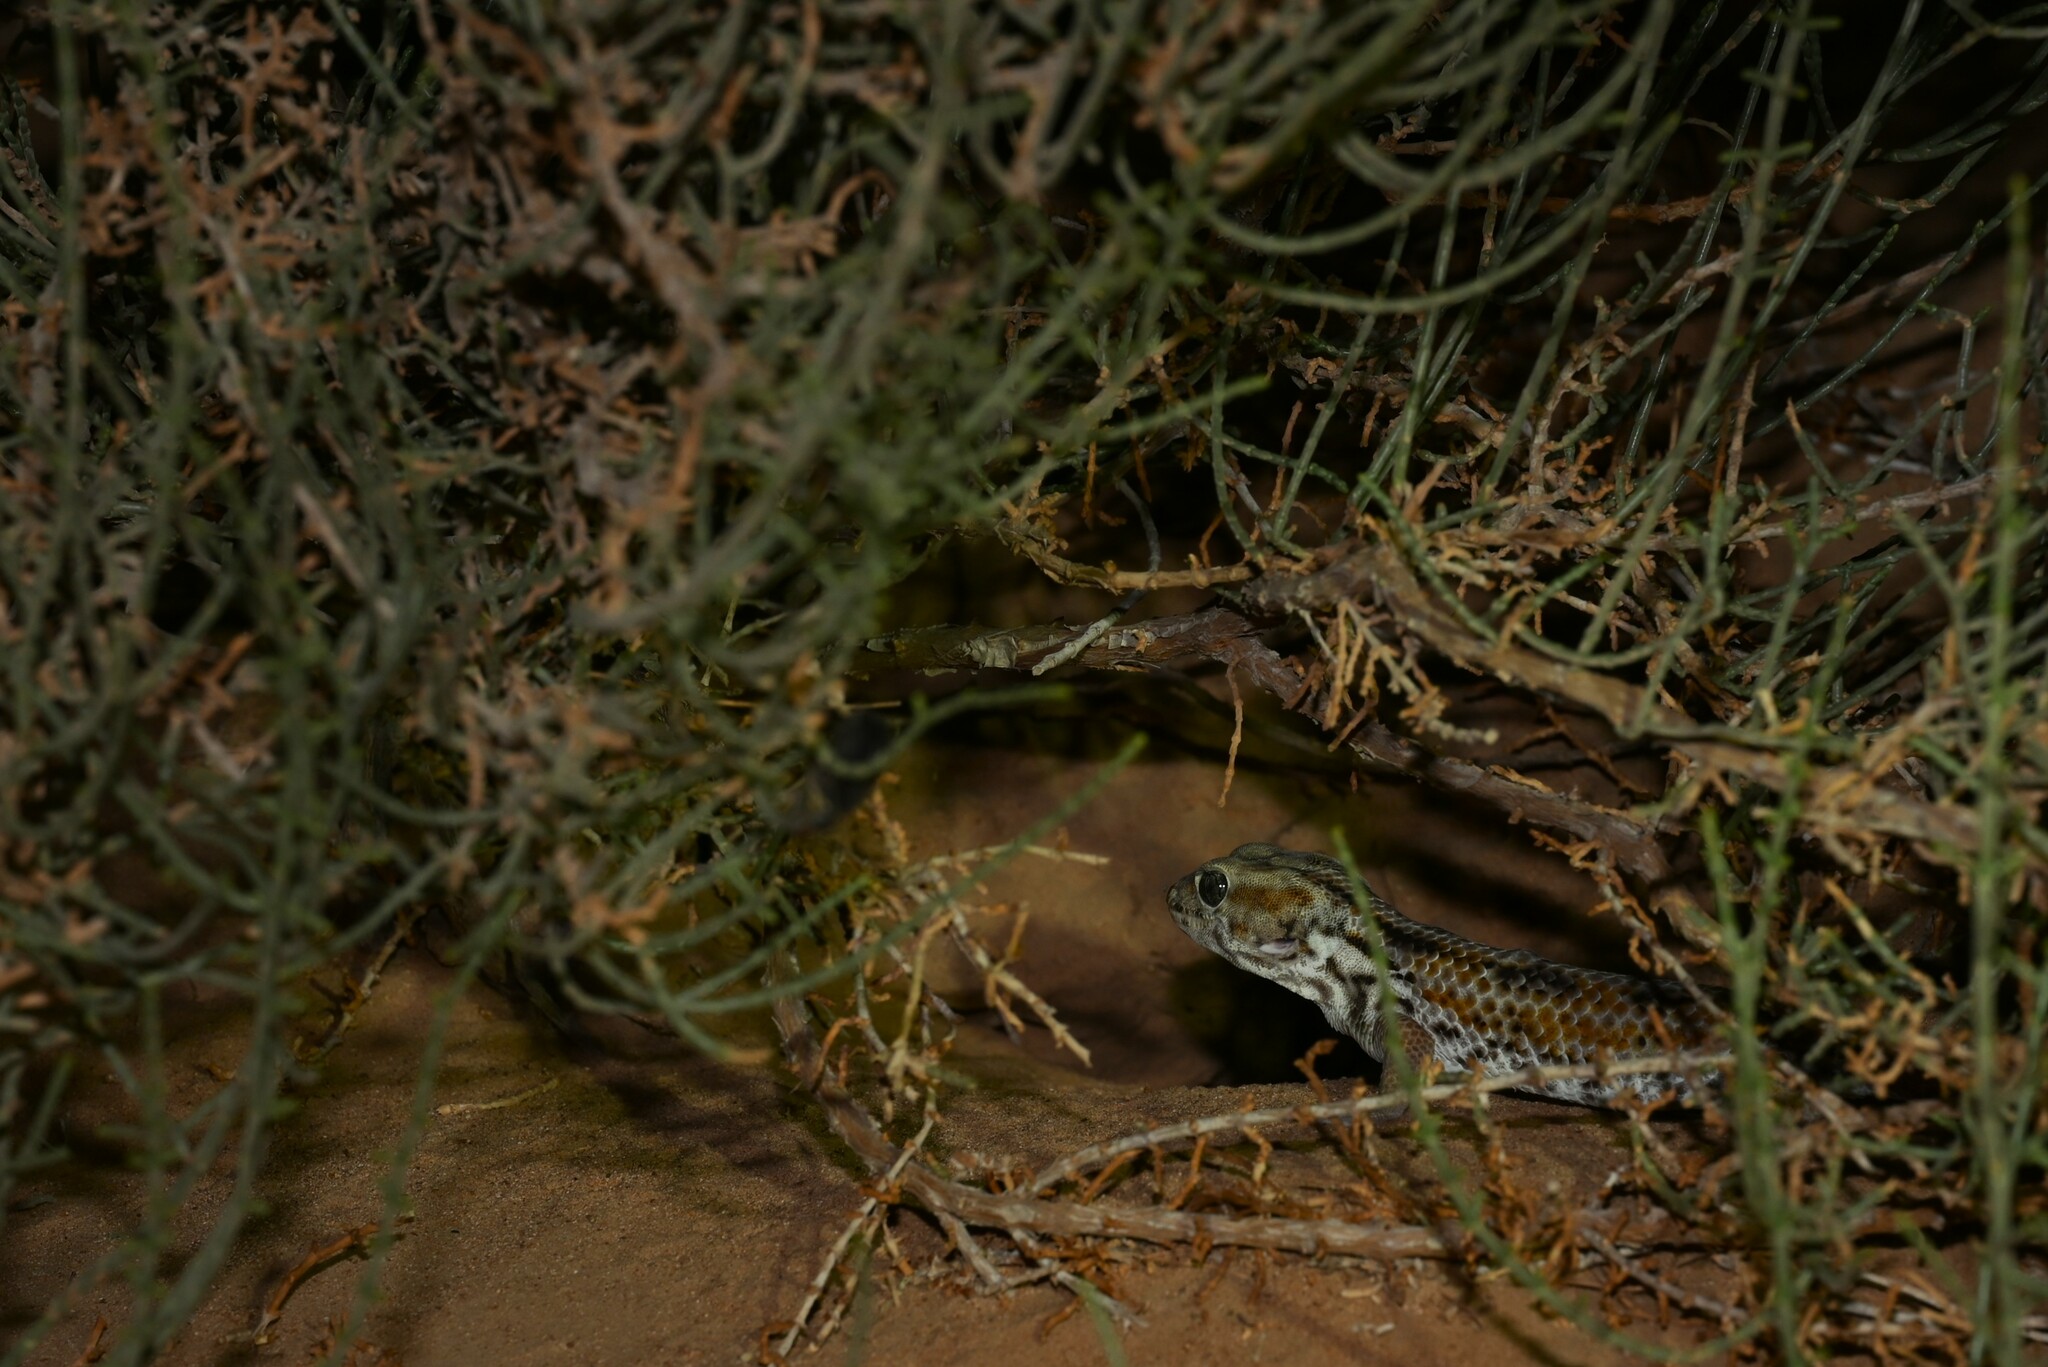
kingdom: Animalia
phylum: Chordata
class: Squamata
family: Sphaerodactylidae
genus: Teratoscincus
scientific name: Teratoscincus keyserlingii
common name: Frog-eyed gecko
